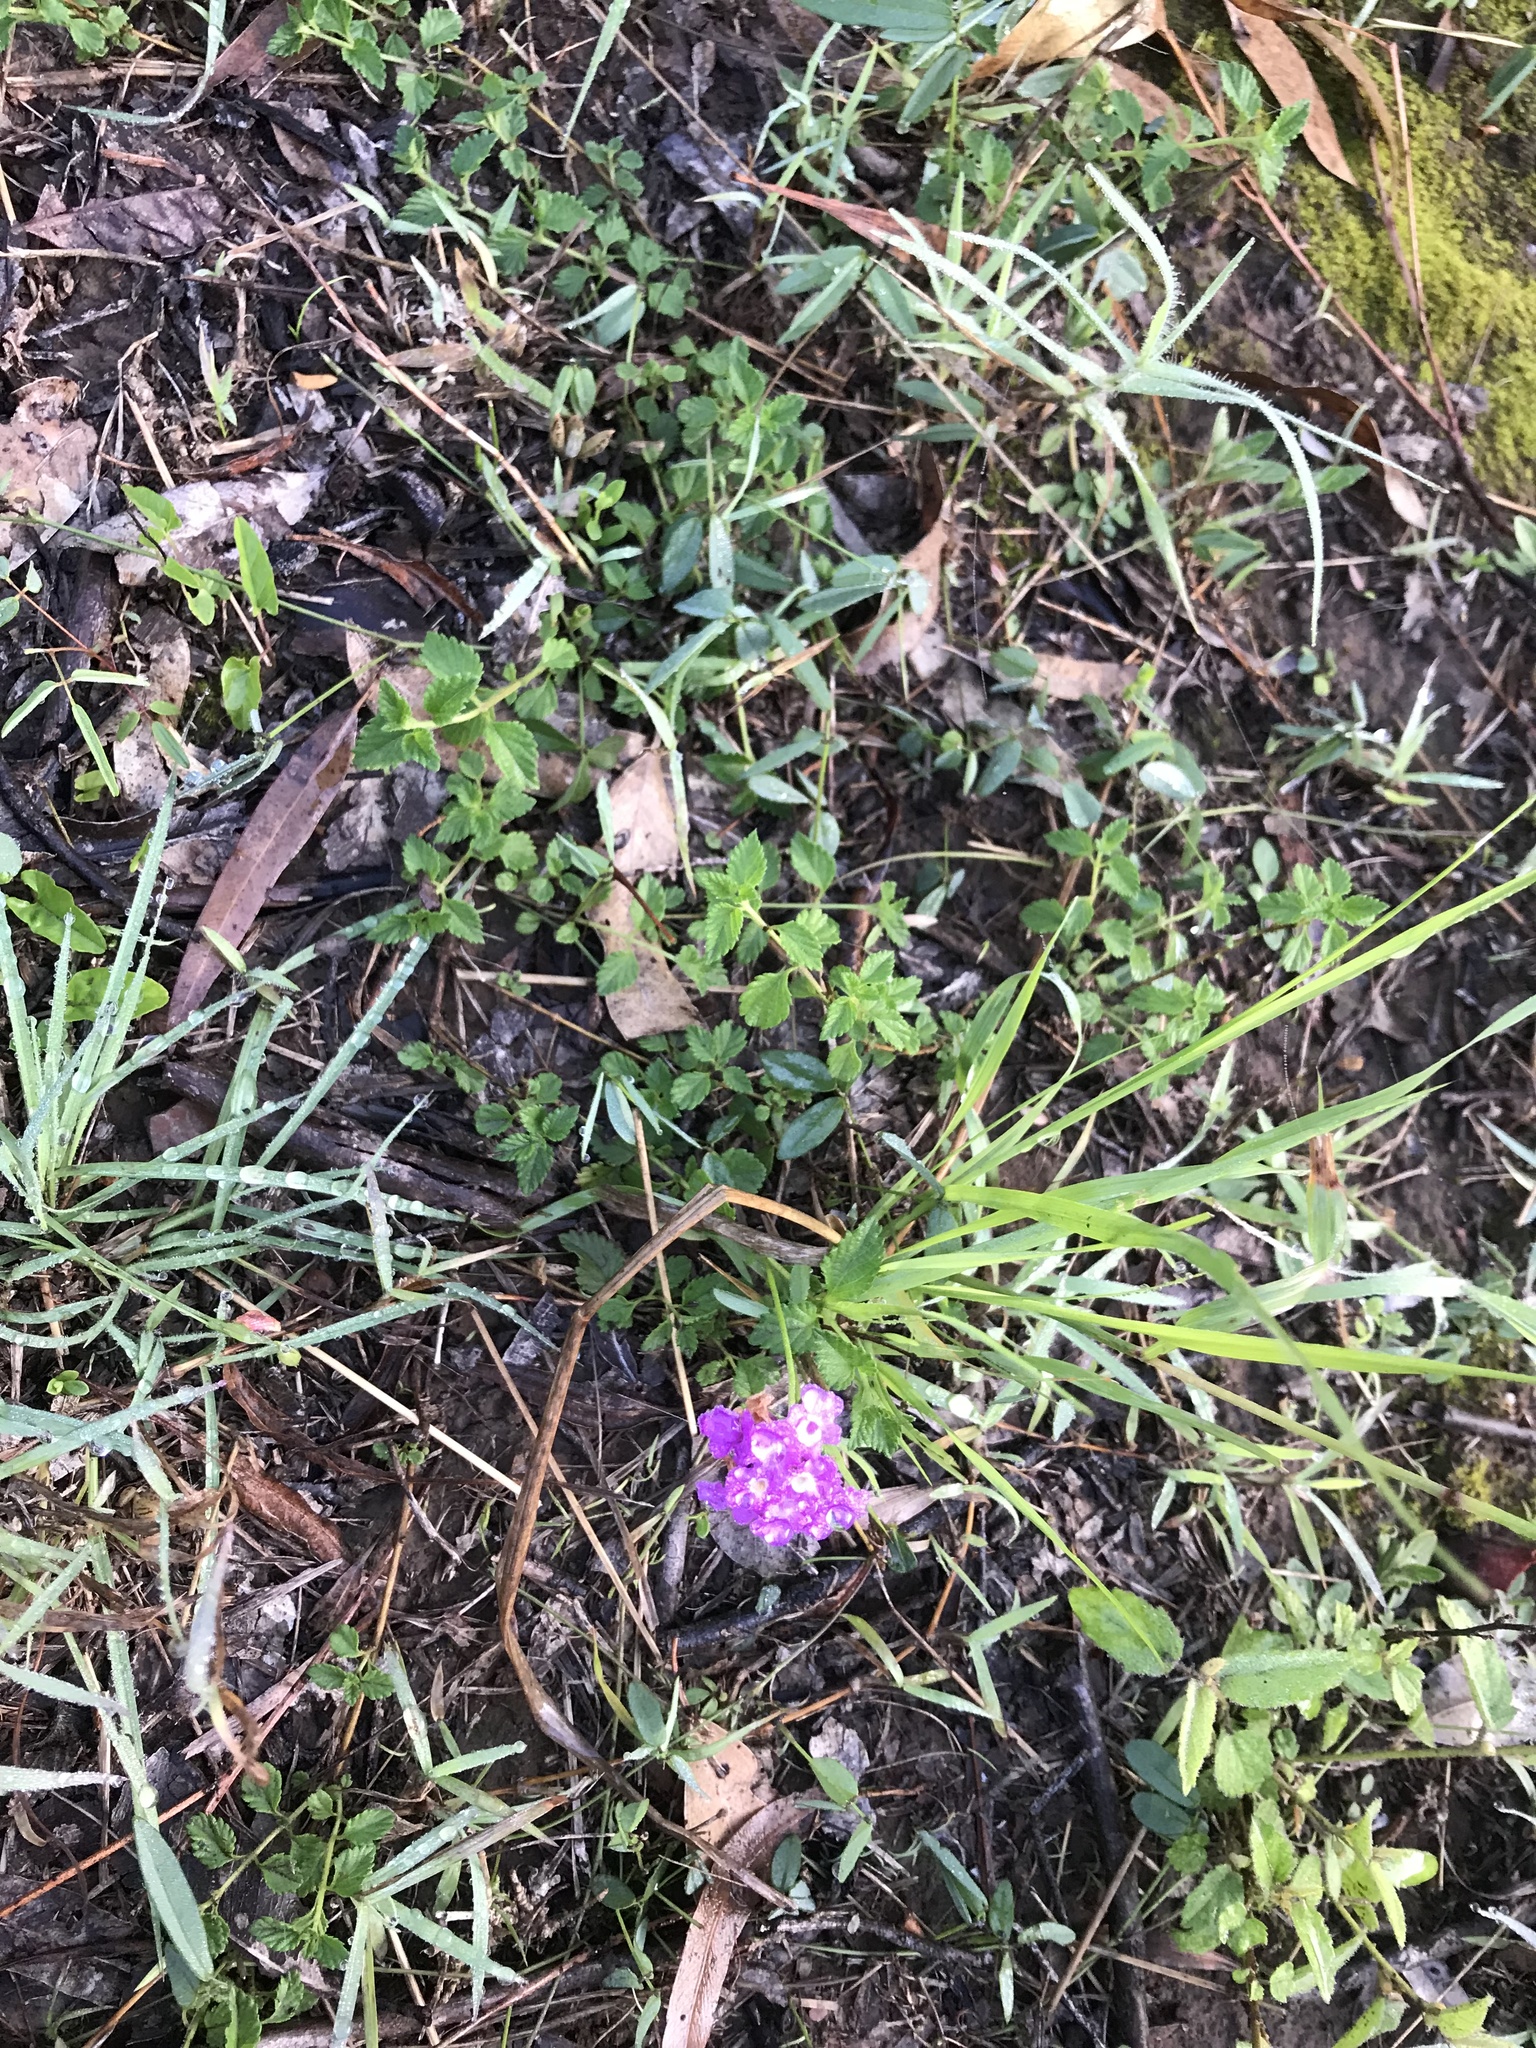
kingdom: Plantae
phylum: Tracheophyta
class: Magnoliopsida
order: Lamiales
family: Verbenaceae
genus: Lantana
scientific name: Lantana montevidensis
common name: Trailing shrubverbena
